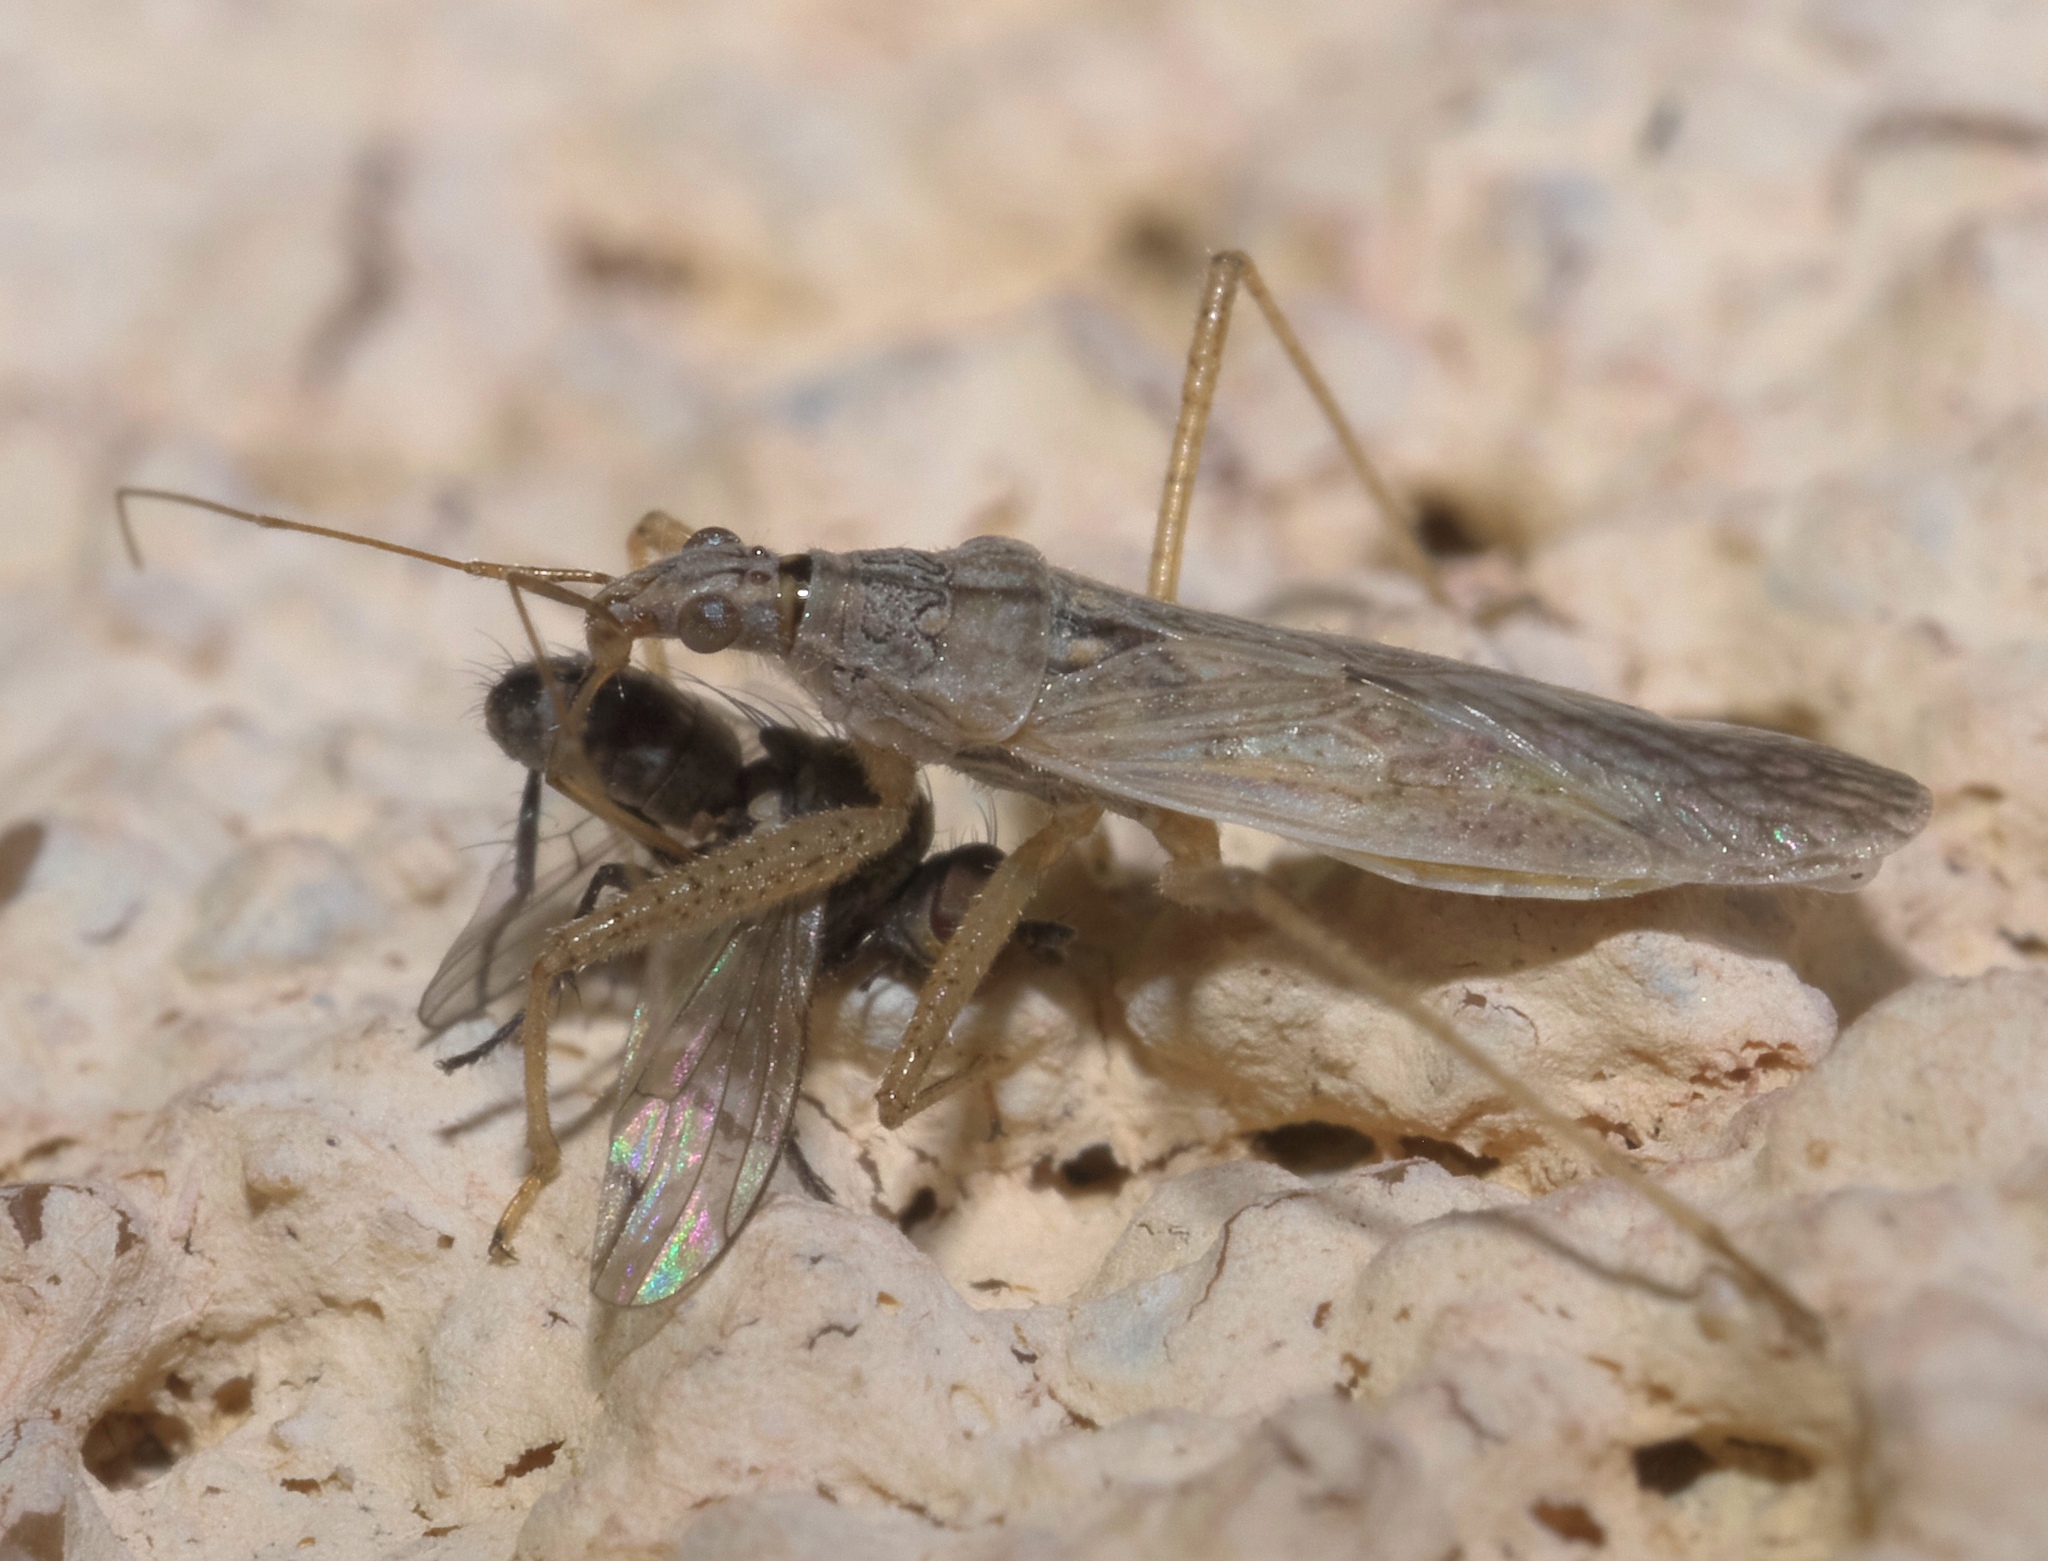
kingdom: Animalia
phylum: Arthropoda
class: Insecta
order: Hemiptera
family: Nabidae
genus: Nabis
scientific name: Nabis americoferus
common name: Common damsel bug
